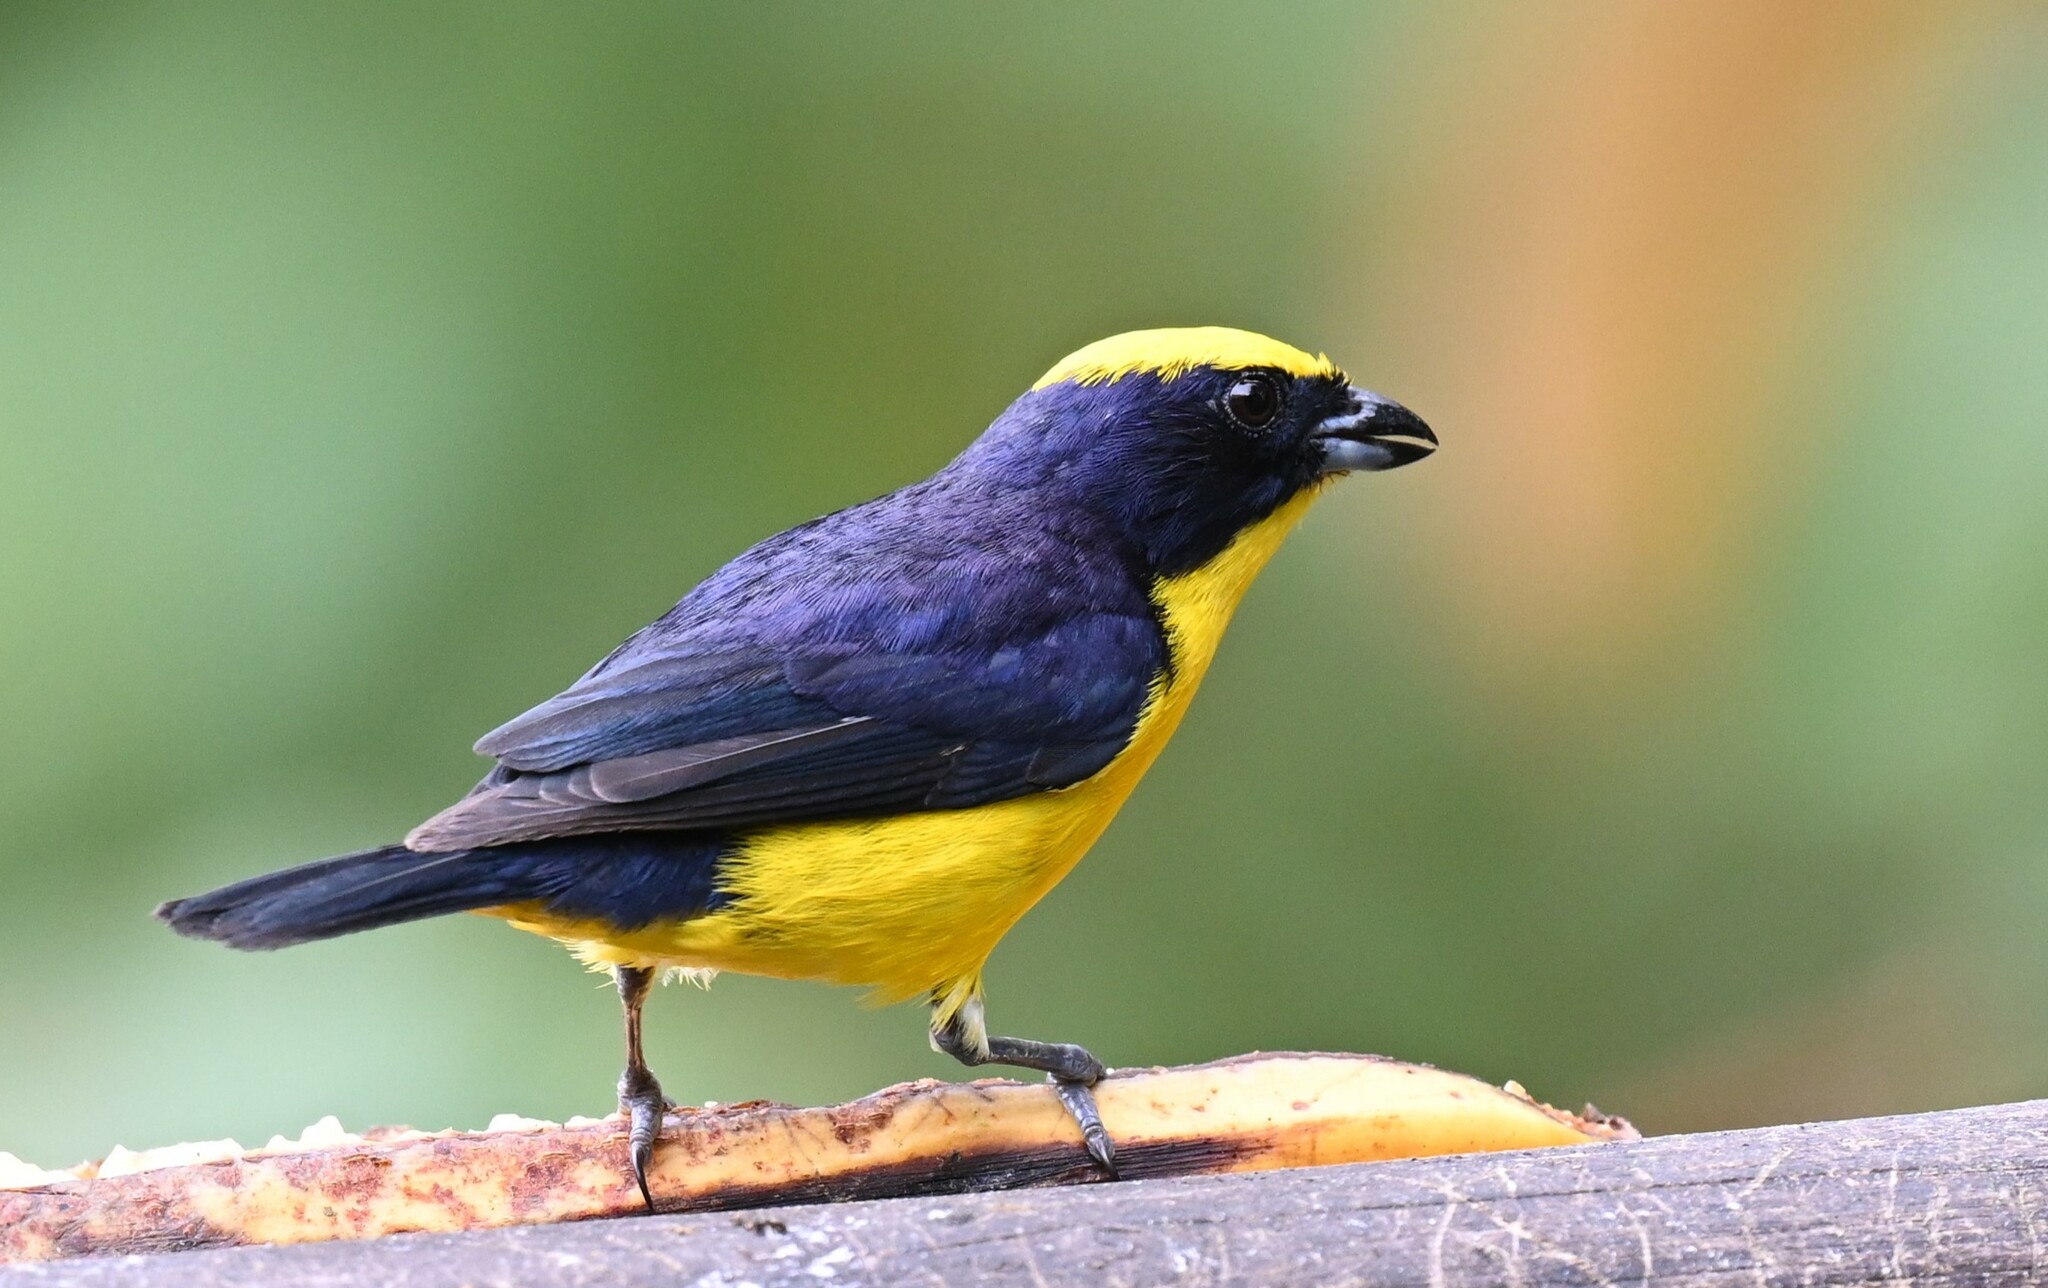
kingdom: Animalia
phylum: Chordata
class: Aves
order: Passeriformes
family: Fringillidae
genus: Euphonia
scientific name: Euphonia laniirostris
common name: Thick-billed euphonia
